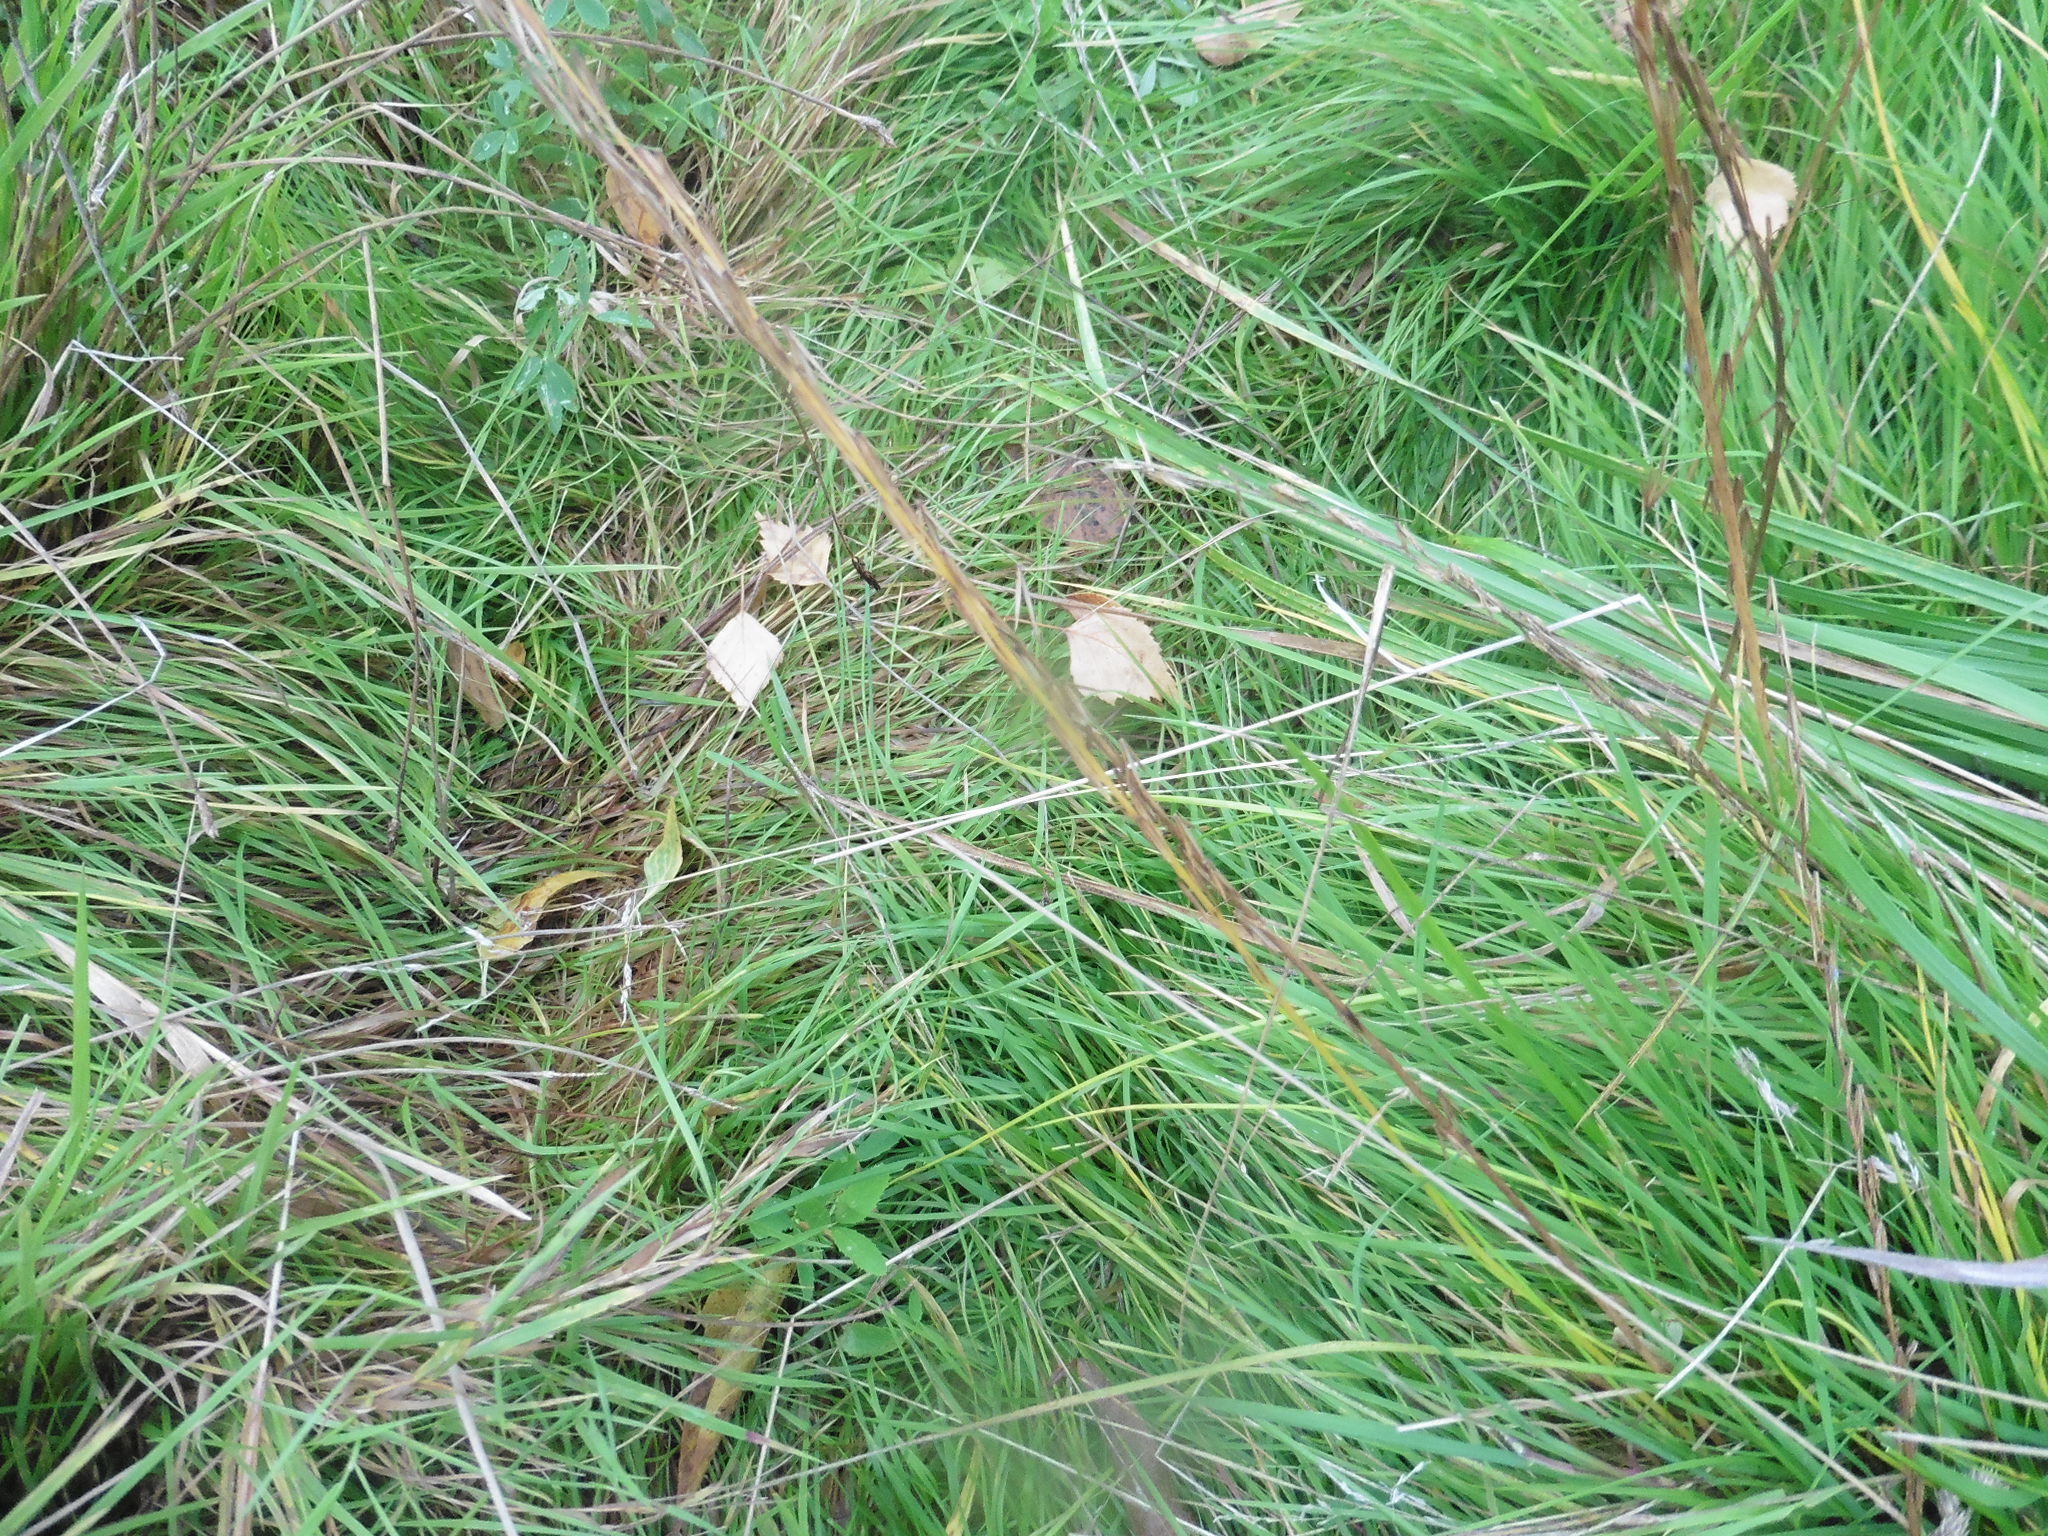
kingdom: Plantae
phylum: Tracheophyta
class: Liliopsida
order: Alismatales
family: Juncaginaceae
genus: Triglochin
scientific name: Triglochin palustris
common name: Marsh arrowgrass
